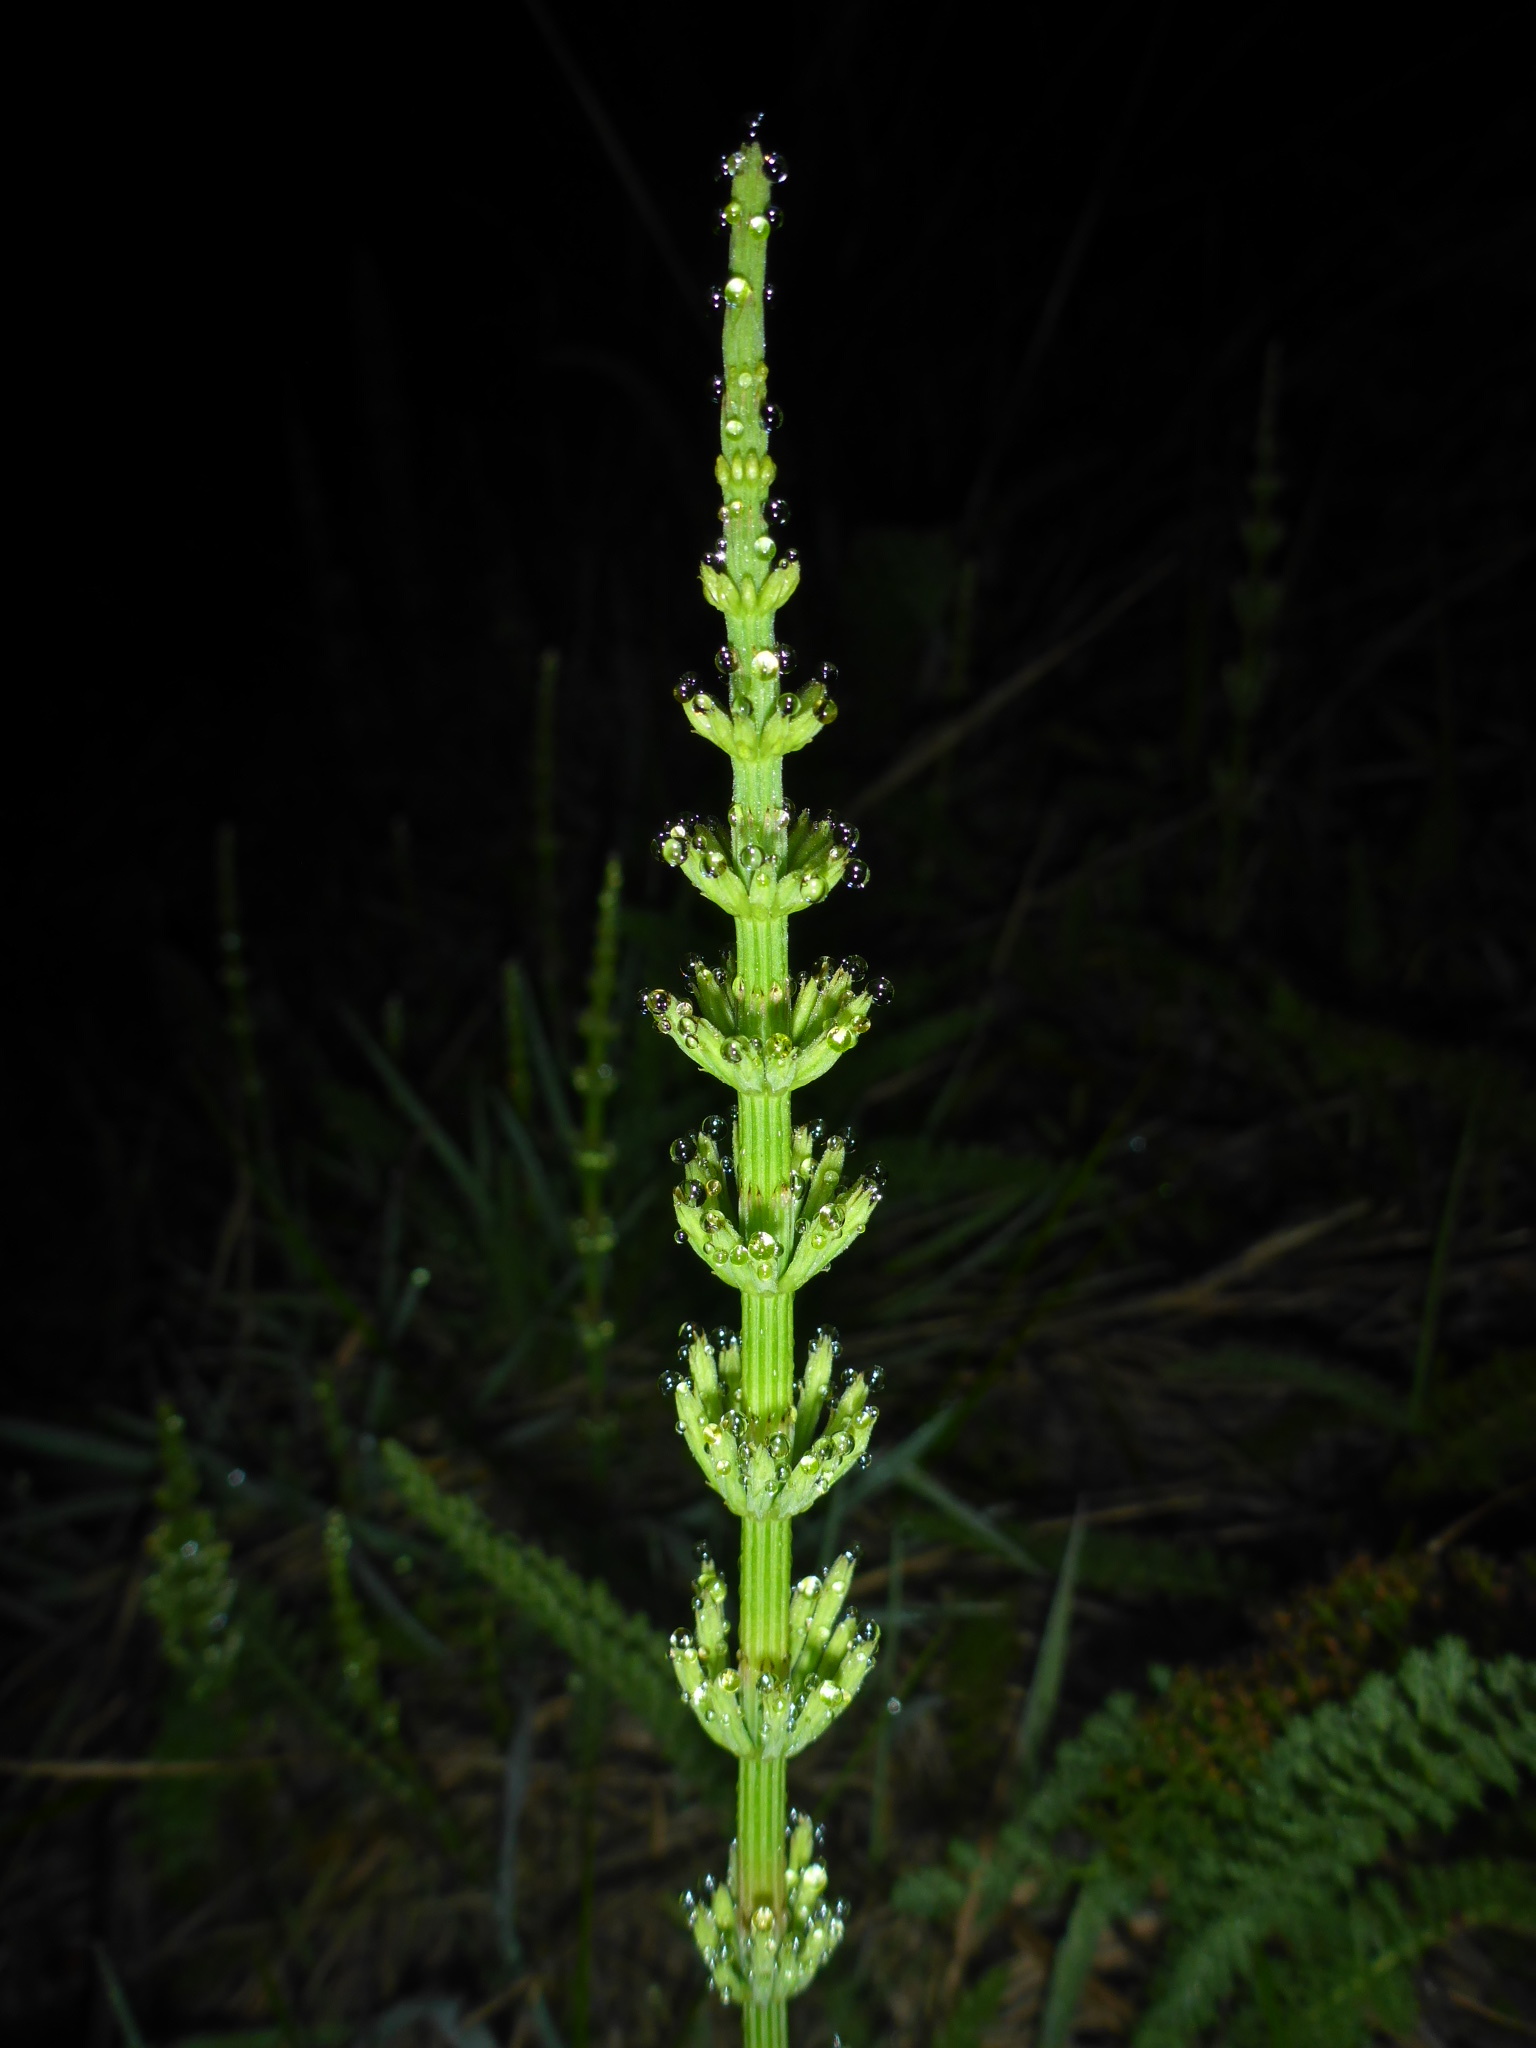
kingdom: Plantae
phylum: Tracheophyta
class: Polypodiopsida
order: Equisetales
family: Equisetaceae
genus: Equisetum
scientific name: Equisetum arvense
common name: Field horsetail
